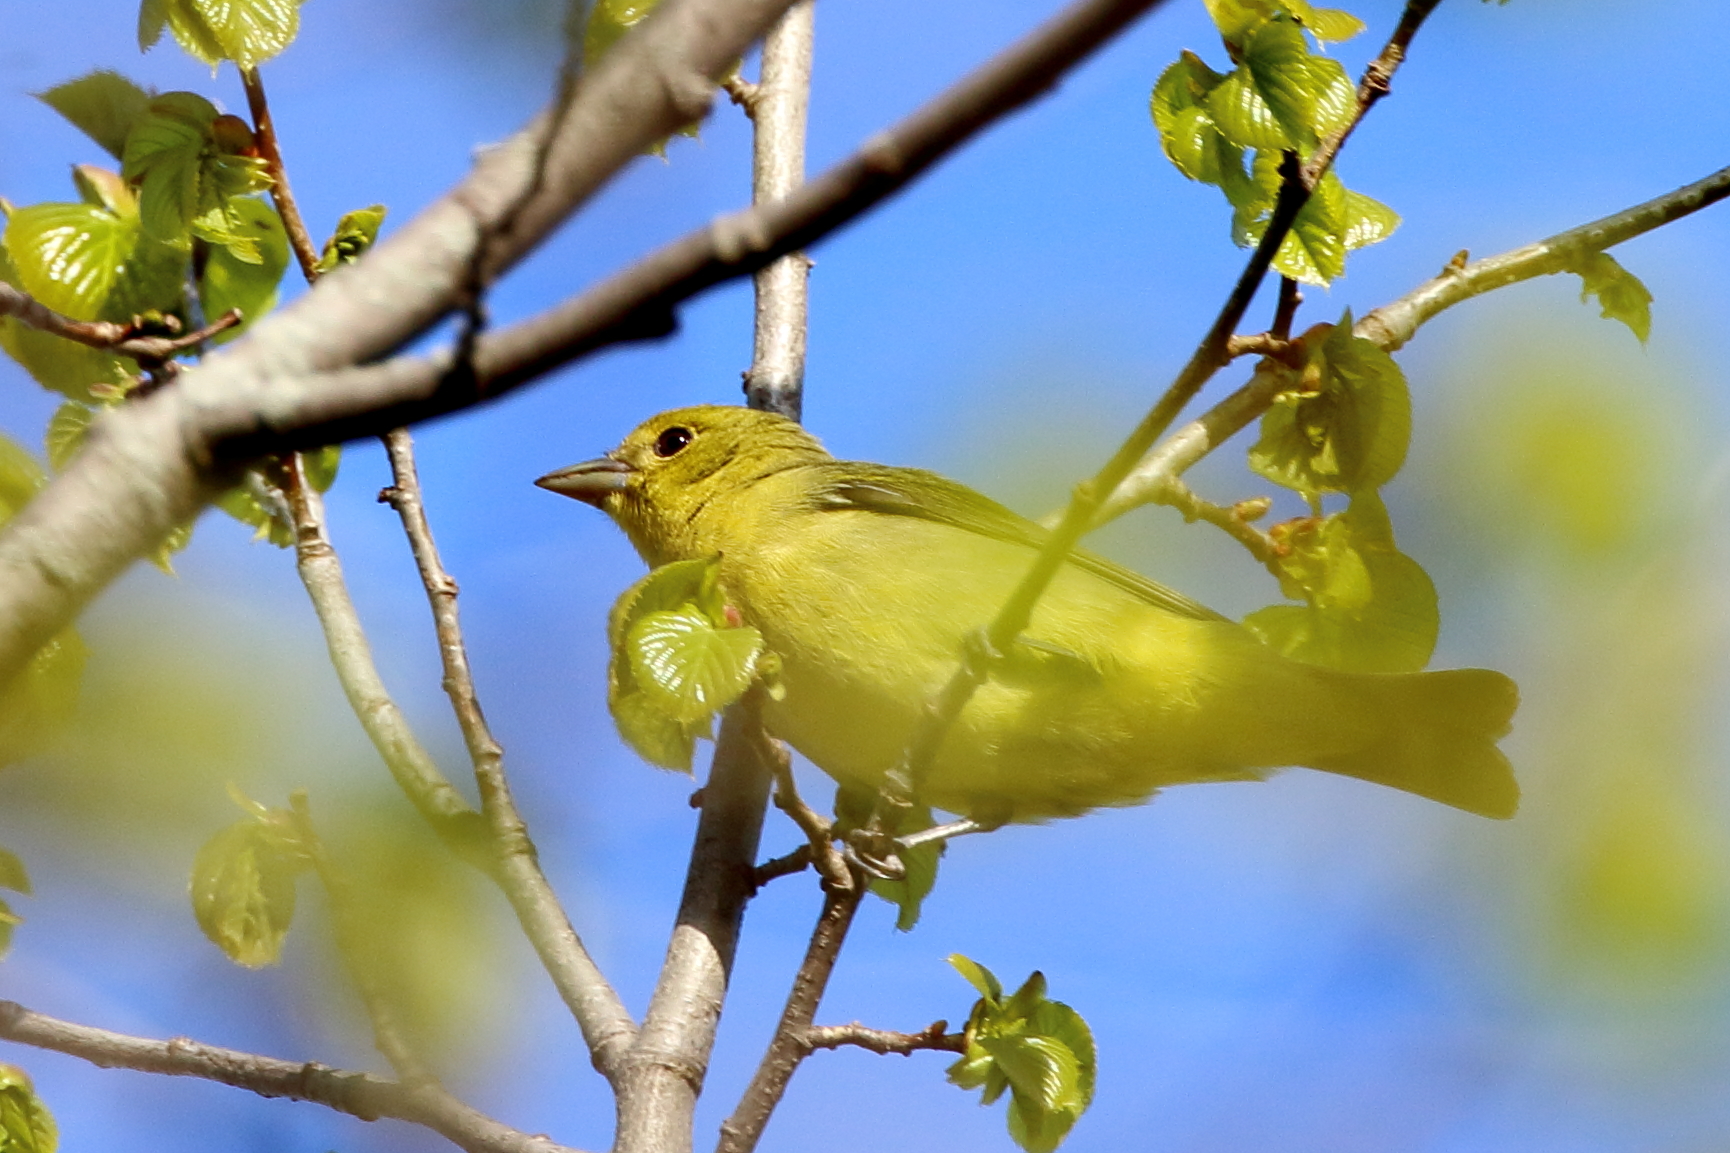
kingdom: Animalia
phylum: Chordata
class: Aves
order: Passeriformes
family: Cardinalidae
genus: Piranga
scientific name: Piranga olivacea
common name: Scarlet tanager
